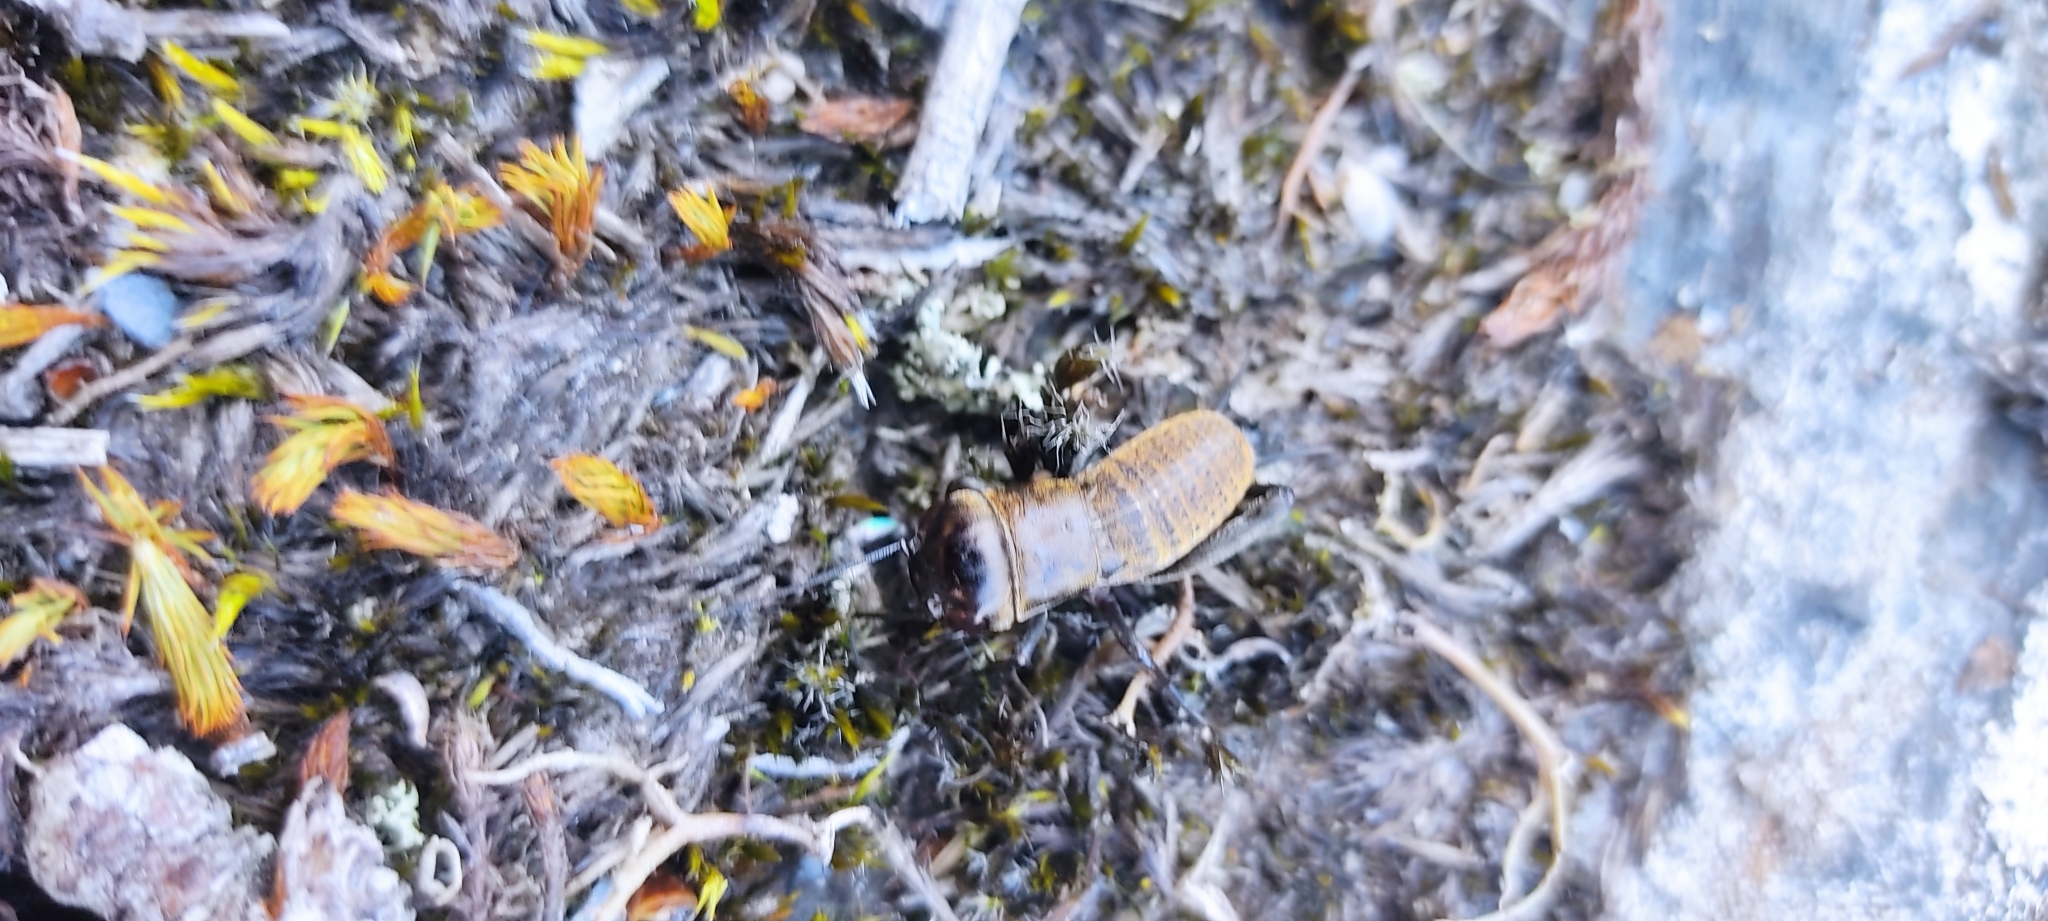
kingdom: Animalia
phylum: Arthropoda
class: Insecta
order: Orthoptera
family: Gryllidae
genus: Gryllus
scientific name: Gryllus campestris
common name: Field cricket
